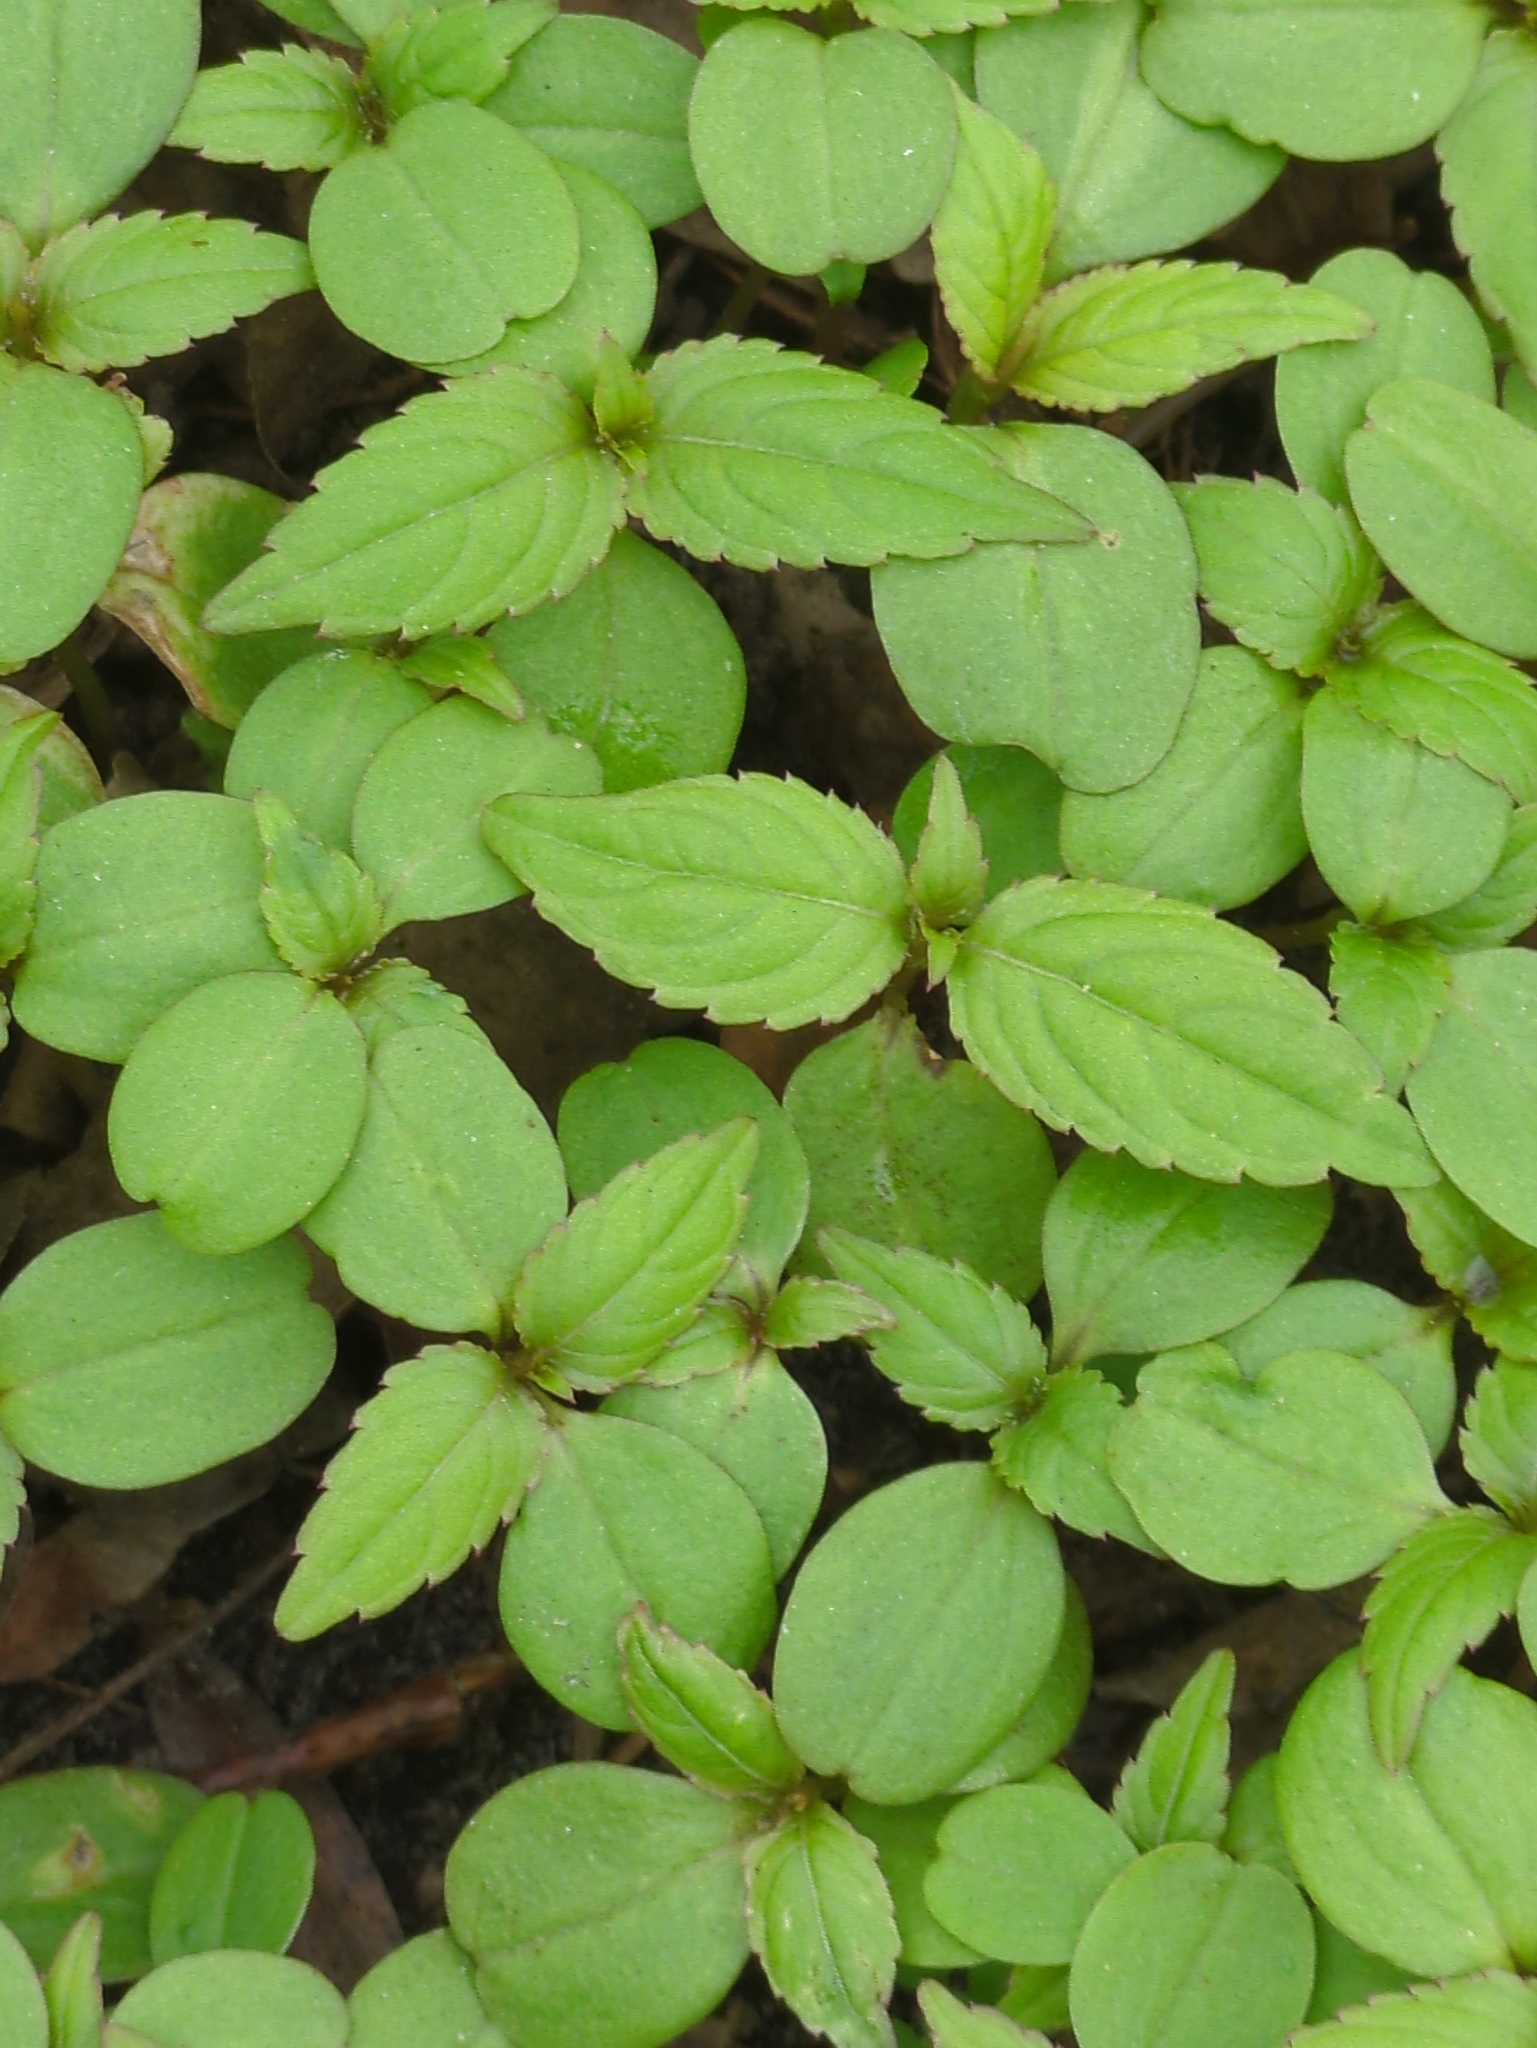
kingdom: Plantae
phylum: Tracheophyta
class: Magnoliopsida
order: Ericales
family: Balsaminaceae
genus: Impatiens
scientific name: Impatiens parviflora
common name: Small balsam
